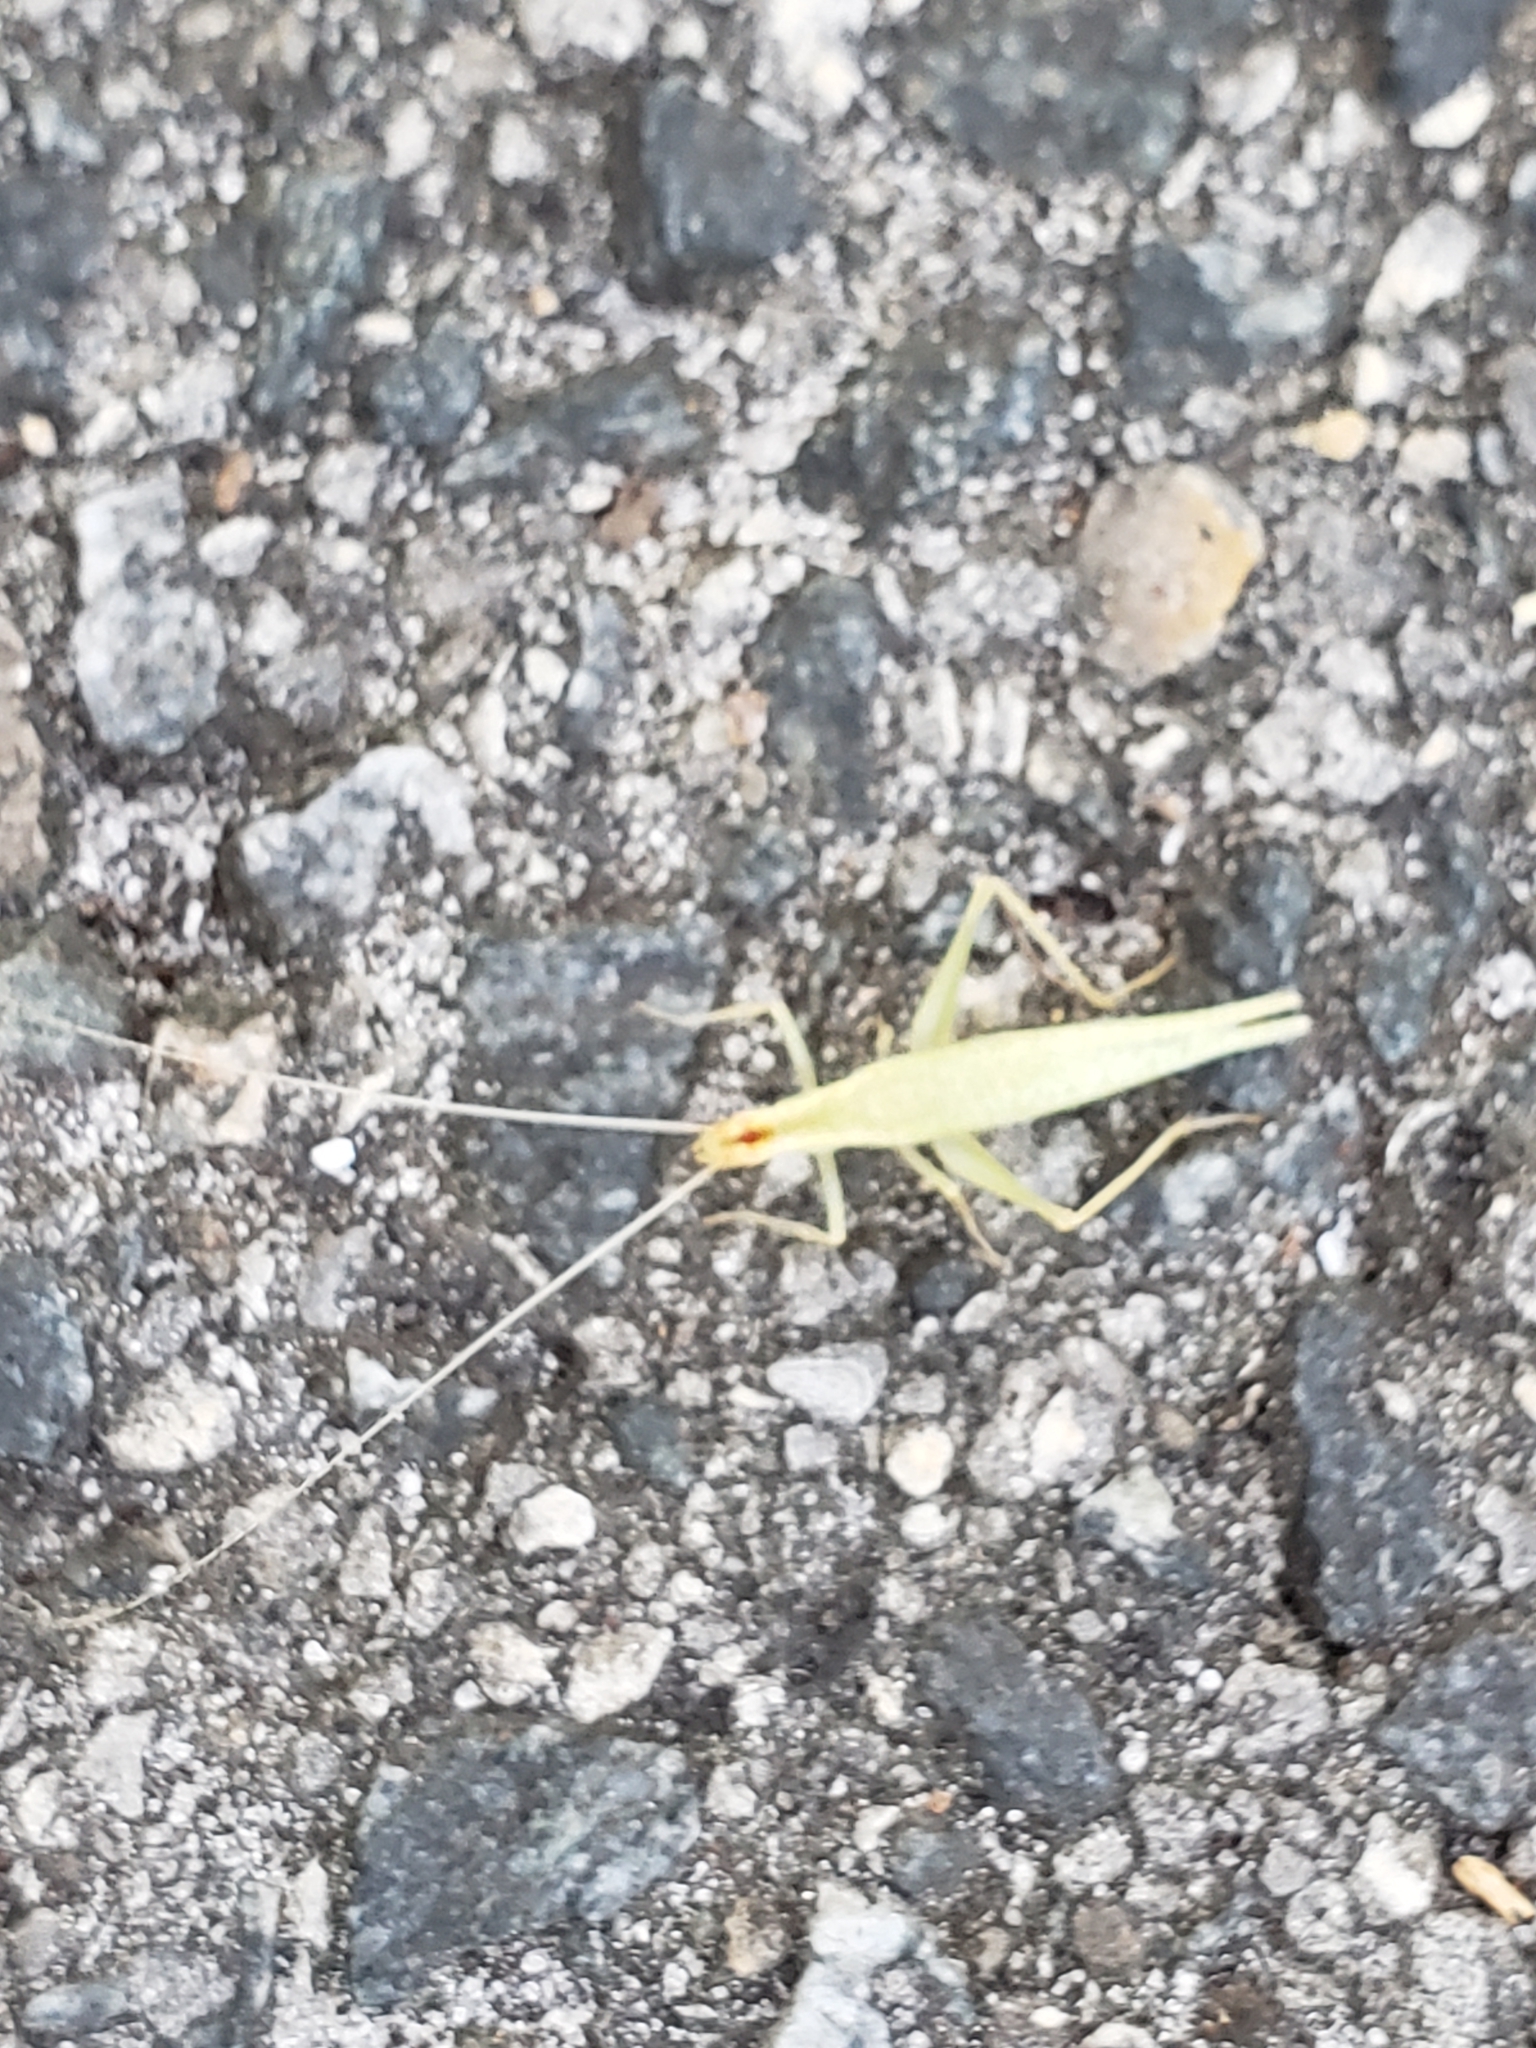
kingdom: Animalia
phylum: Arthropoda
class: Insecta
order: Orthoptera
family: Gryllidae
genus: Oecanthus
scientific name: Oecanthus niveus
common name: Narrow-winged tree cricket
